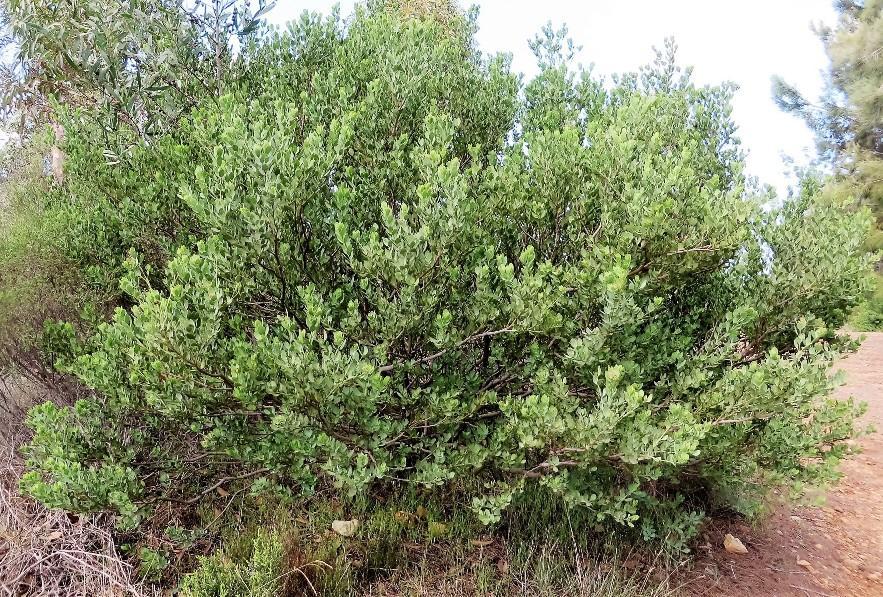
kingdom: Plantae
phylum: Tracheophyta
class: Magnoliopsida
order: Santalales
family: Santalaceae
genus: Osyris
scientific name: Osyris compressa
